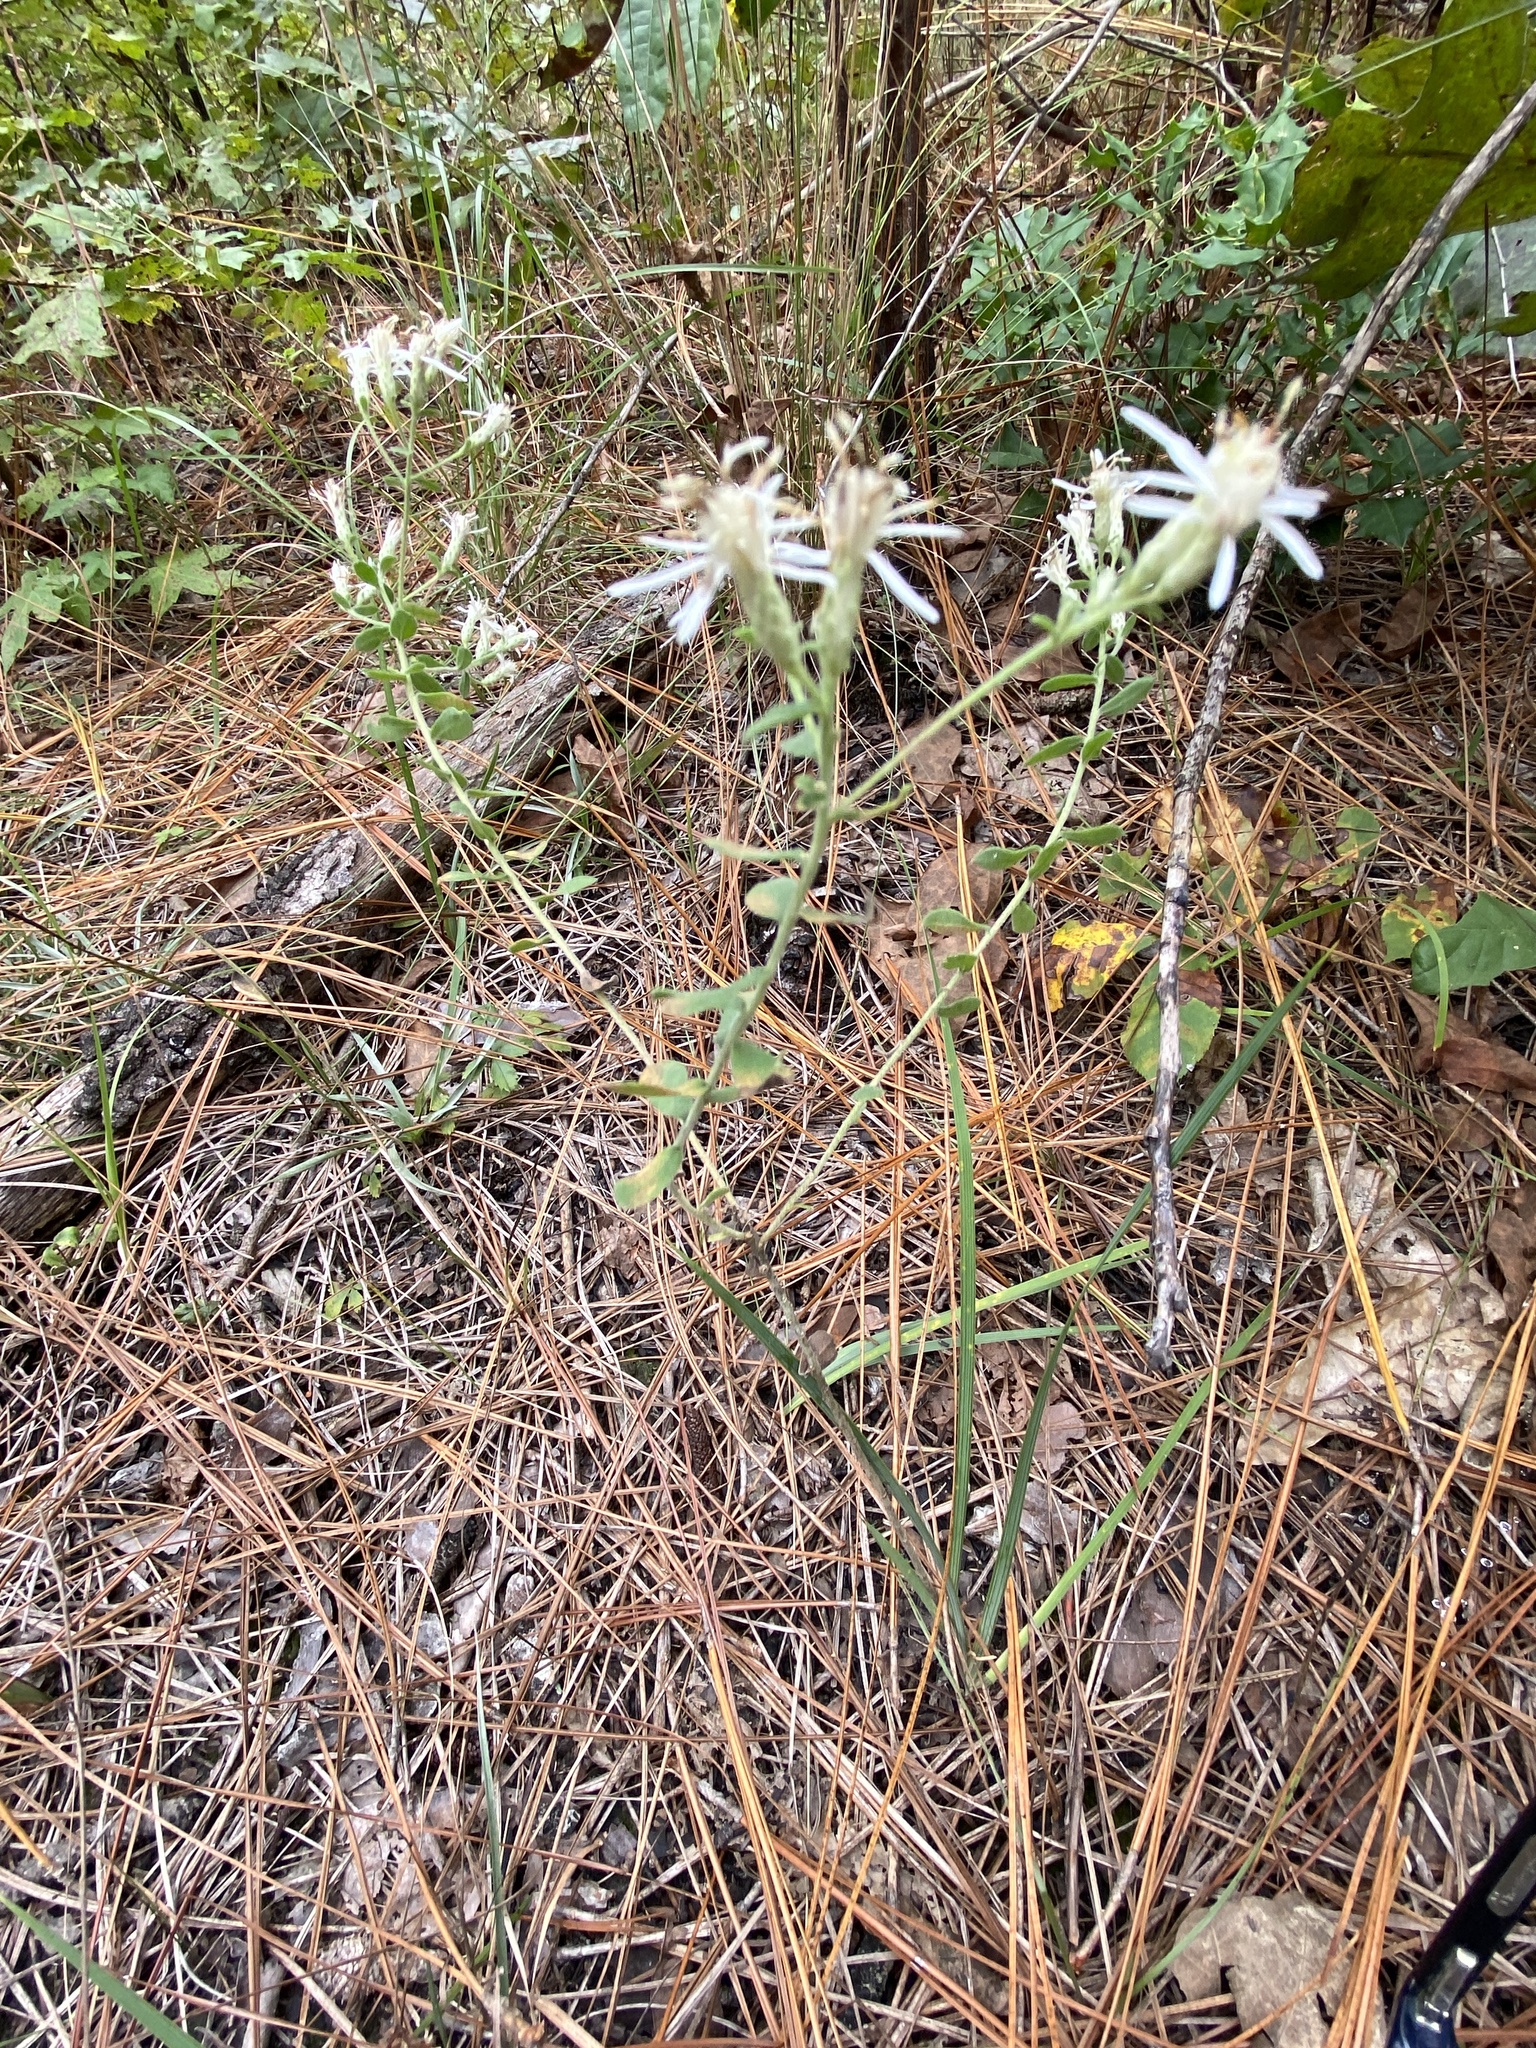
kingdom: Plantae
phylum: Tracheophyta
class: Magnoliopsida
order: Asterales
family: Asteraceae
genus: Sericocarpus
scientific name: Sericocarpus tortifolius
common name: Dixie aster
